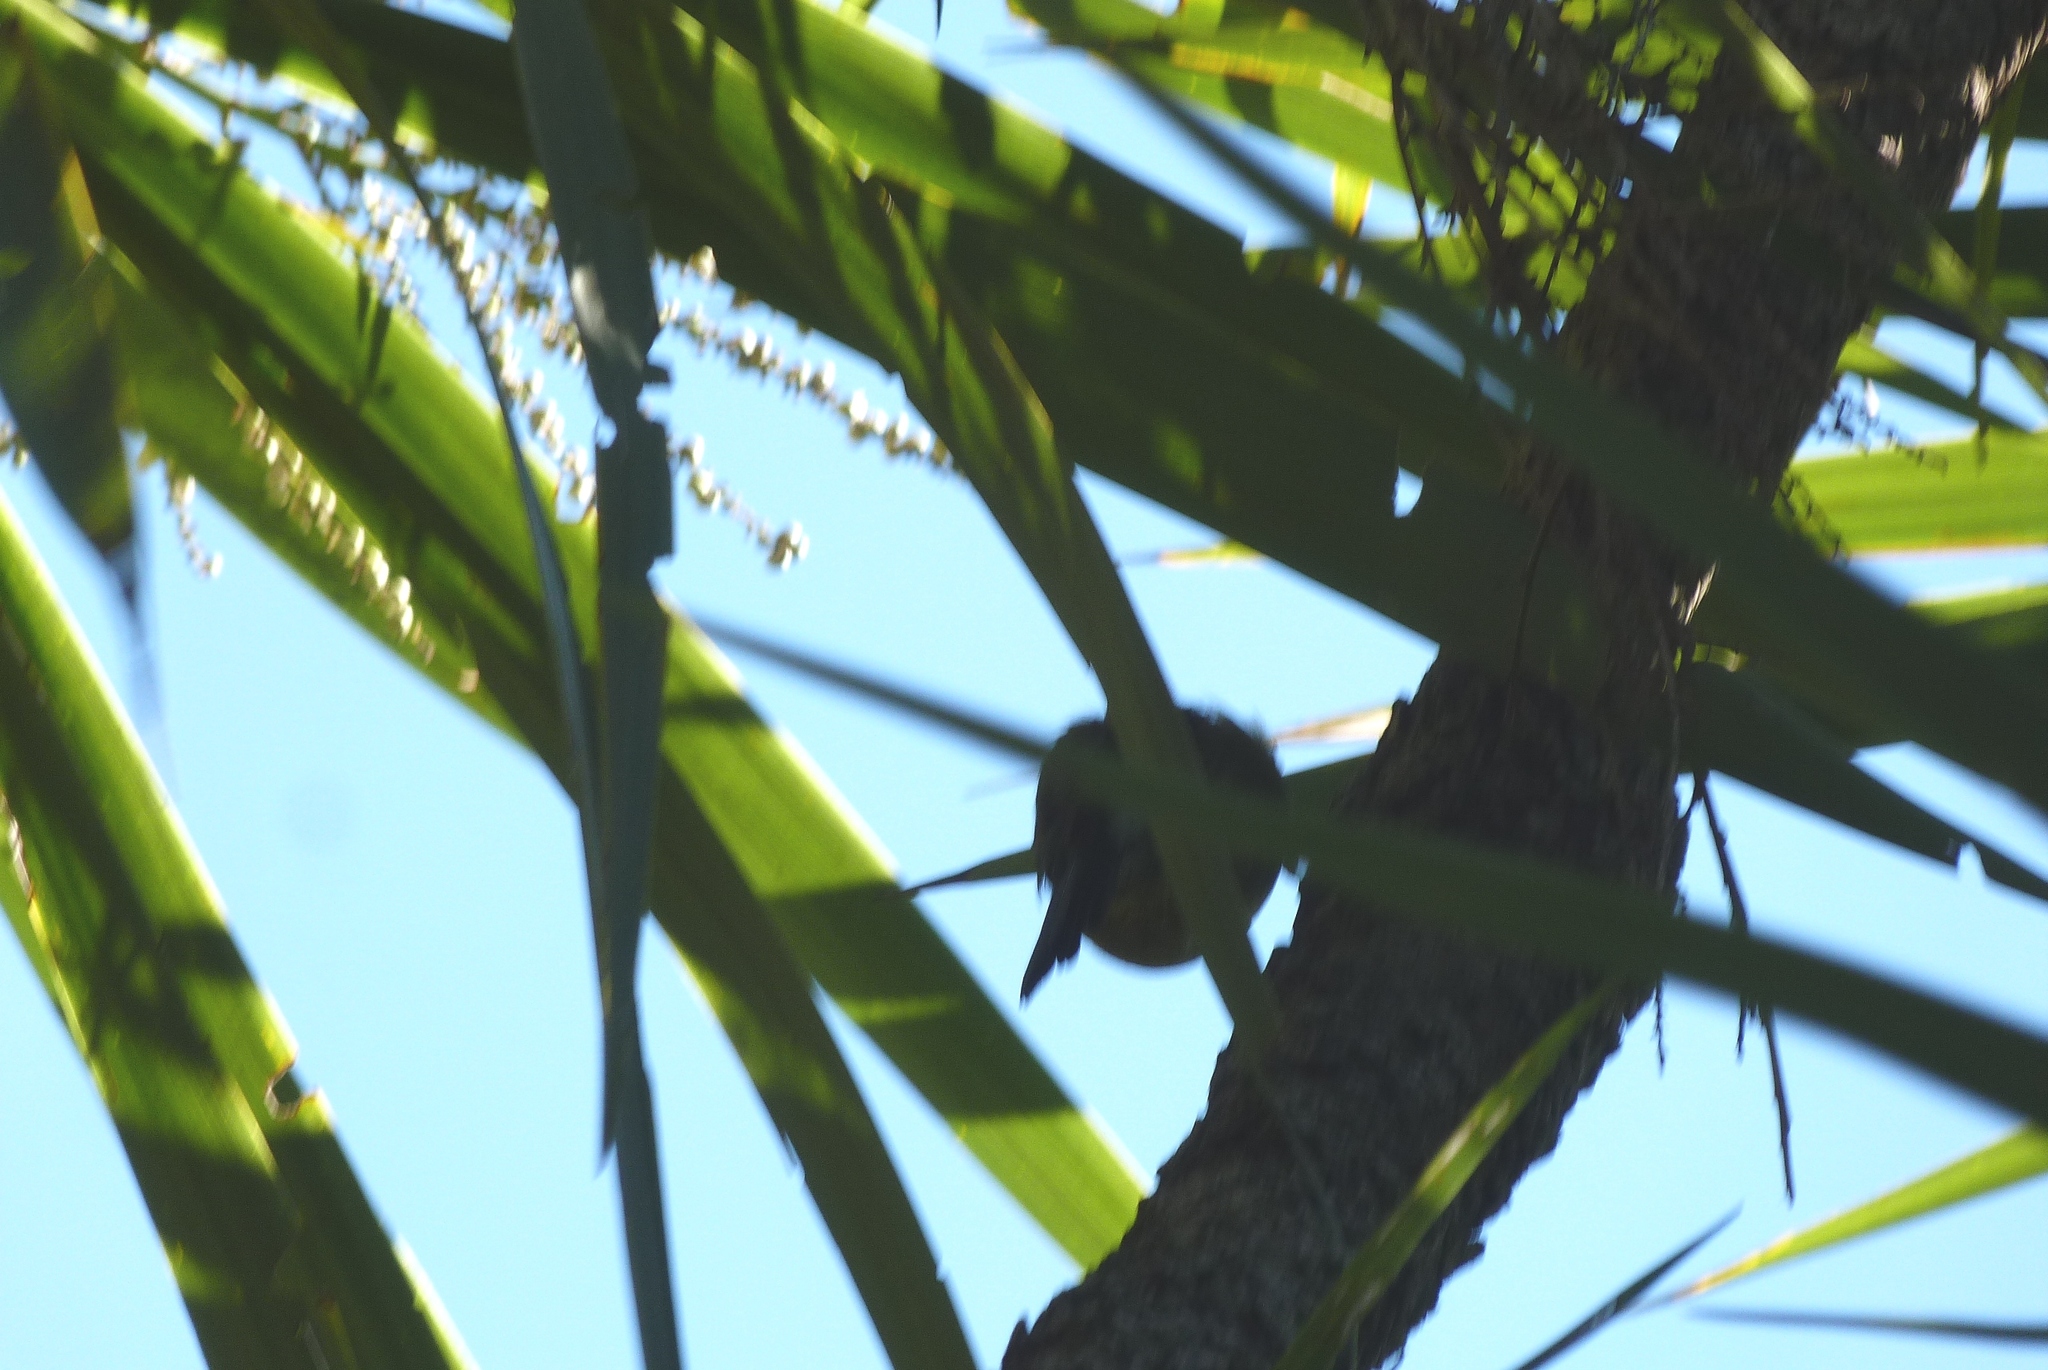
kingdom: Animalia
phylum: Chordata
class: Aves
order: Passeriformes
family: Meliphagidae
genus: Anthornis
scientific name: Anthornis melanura
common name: New zealand bellbird
